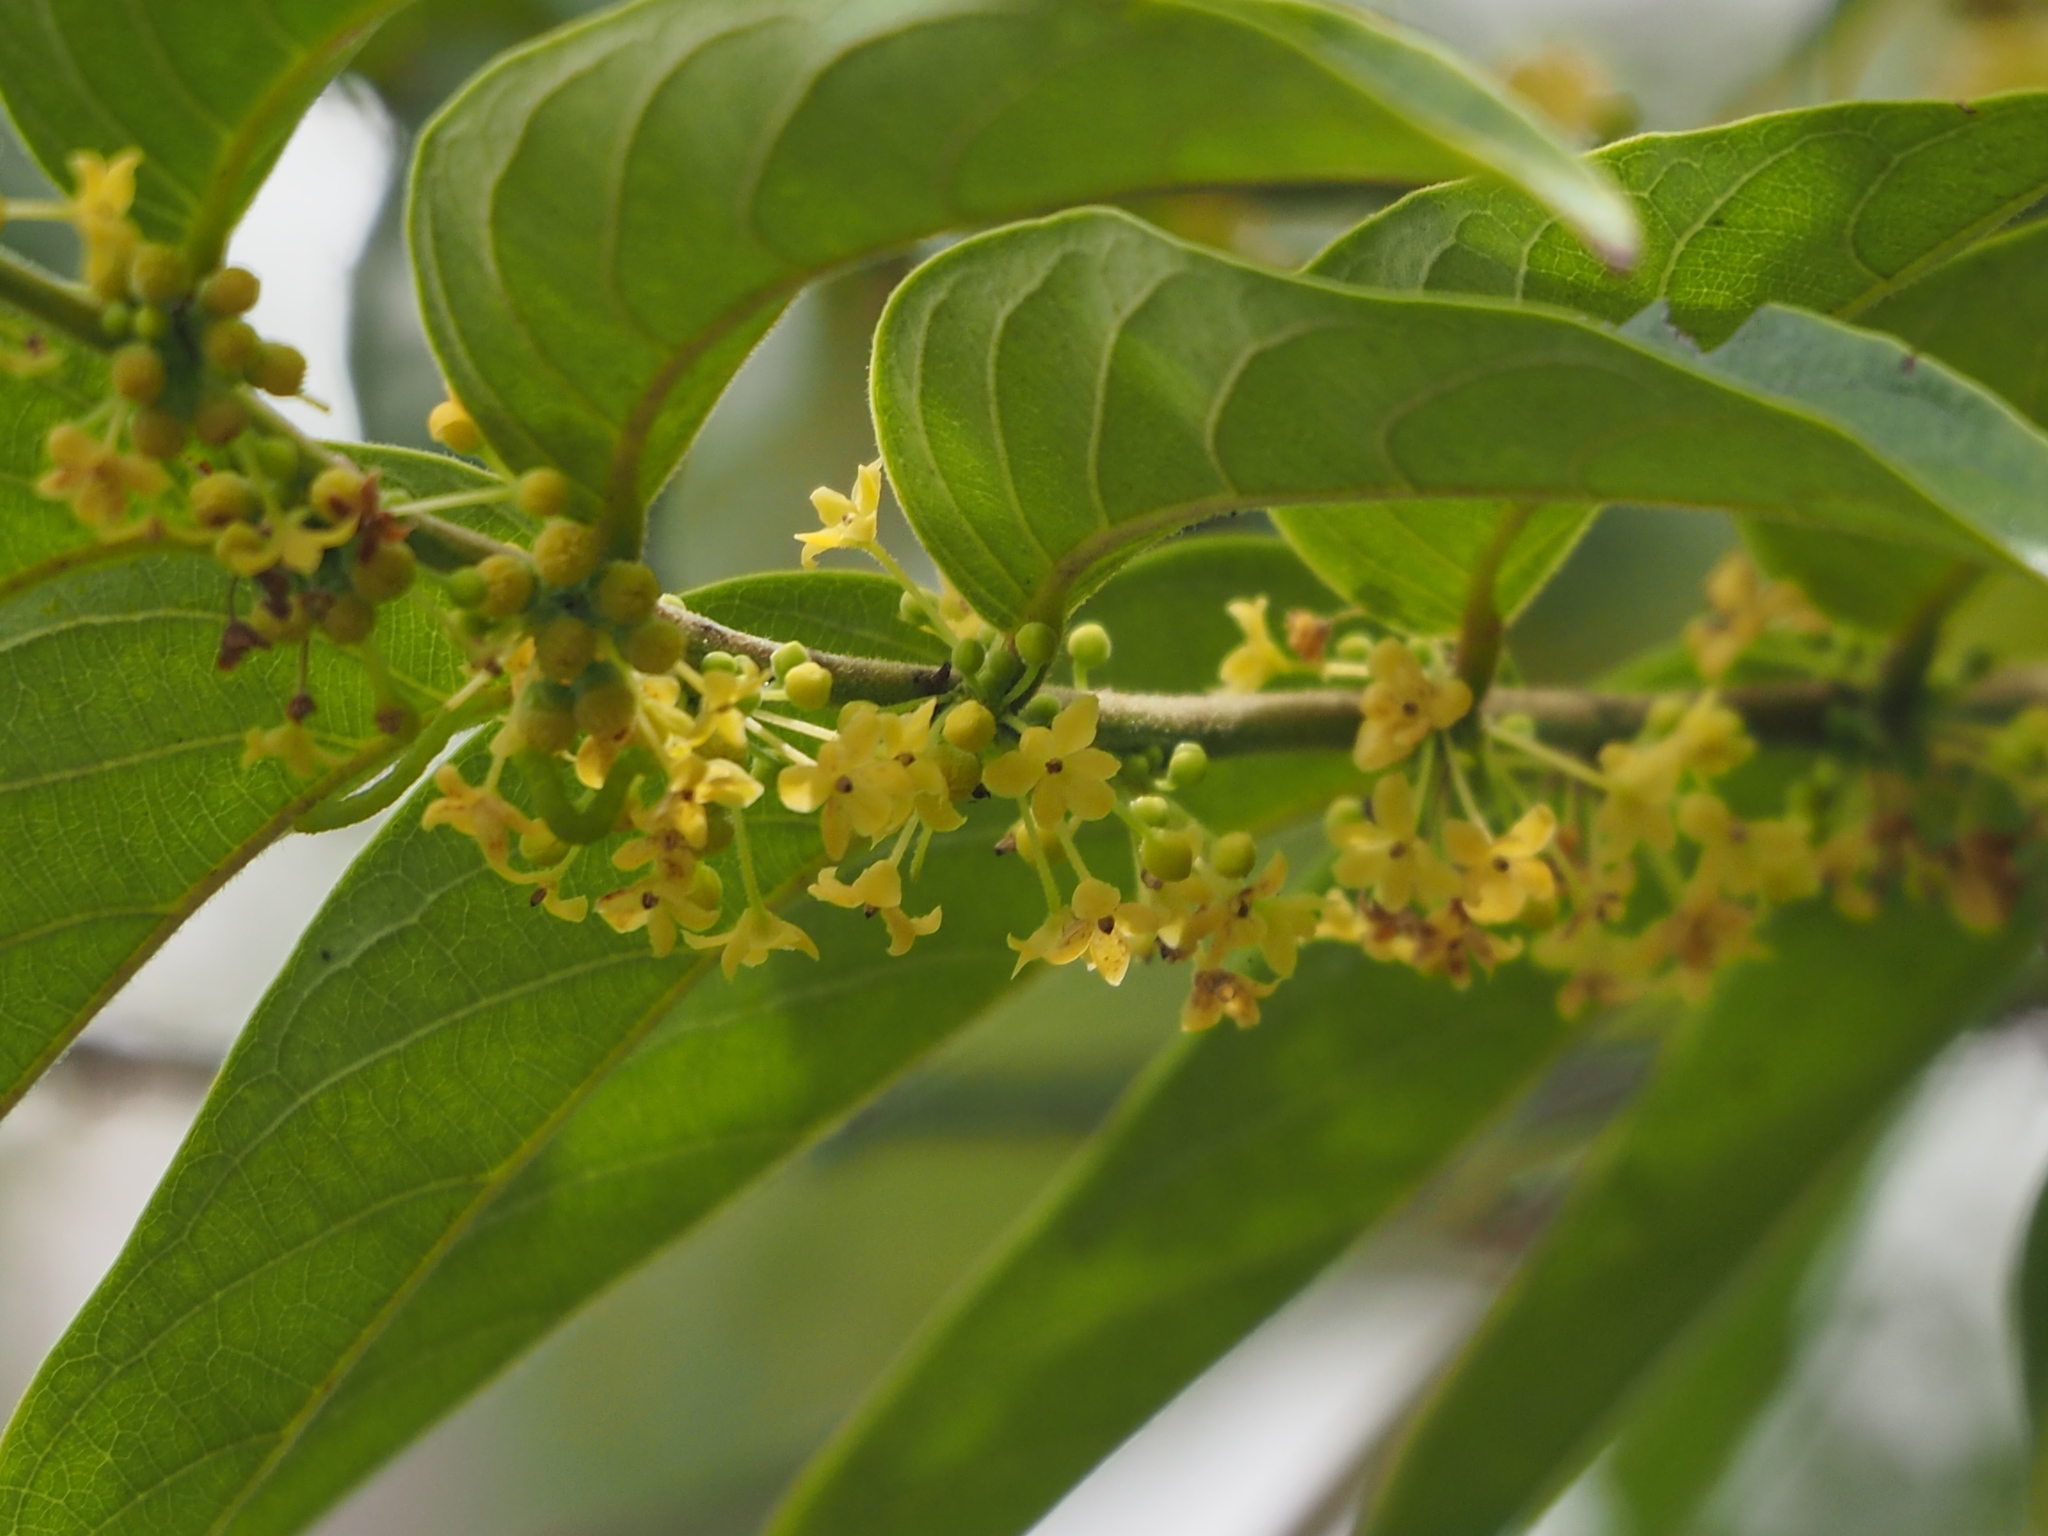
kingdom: Plantae
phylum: Tracheophyta
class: Magnoliopsida
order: Malpighiales
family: Phyllanthaceae
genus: Glochidion
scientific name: Glochidion philippicum
